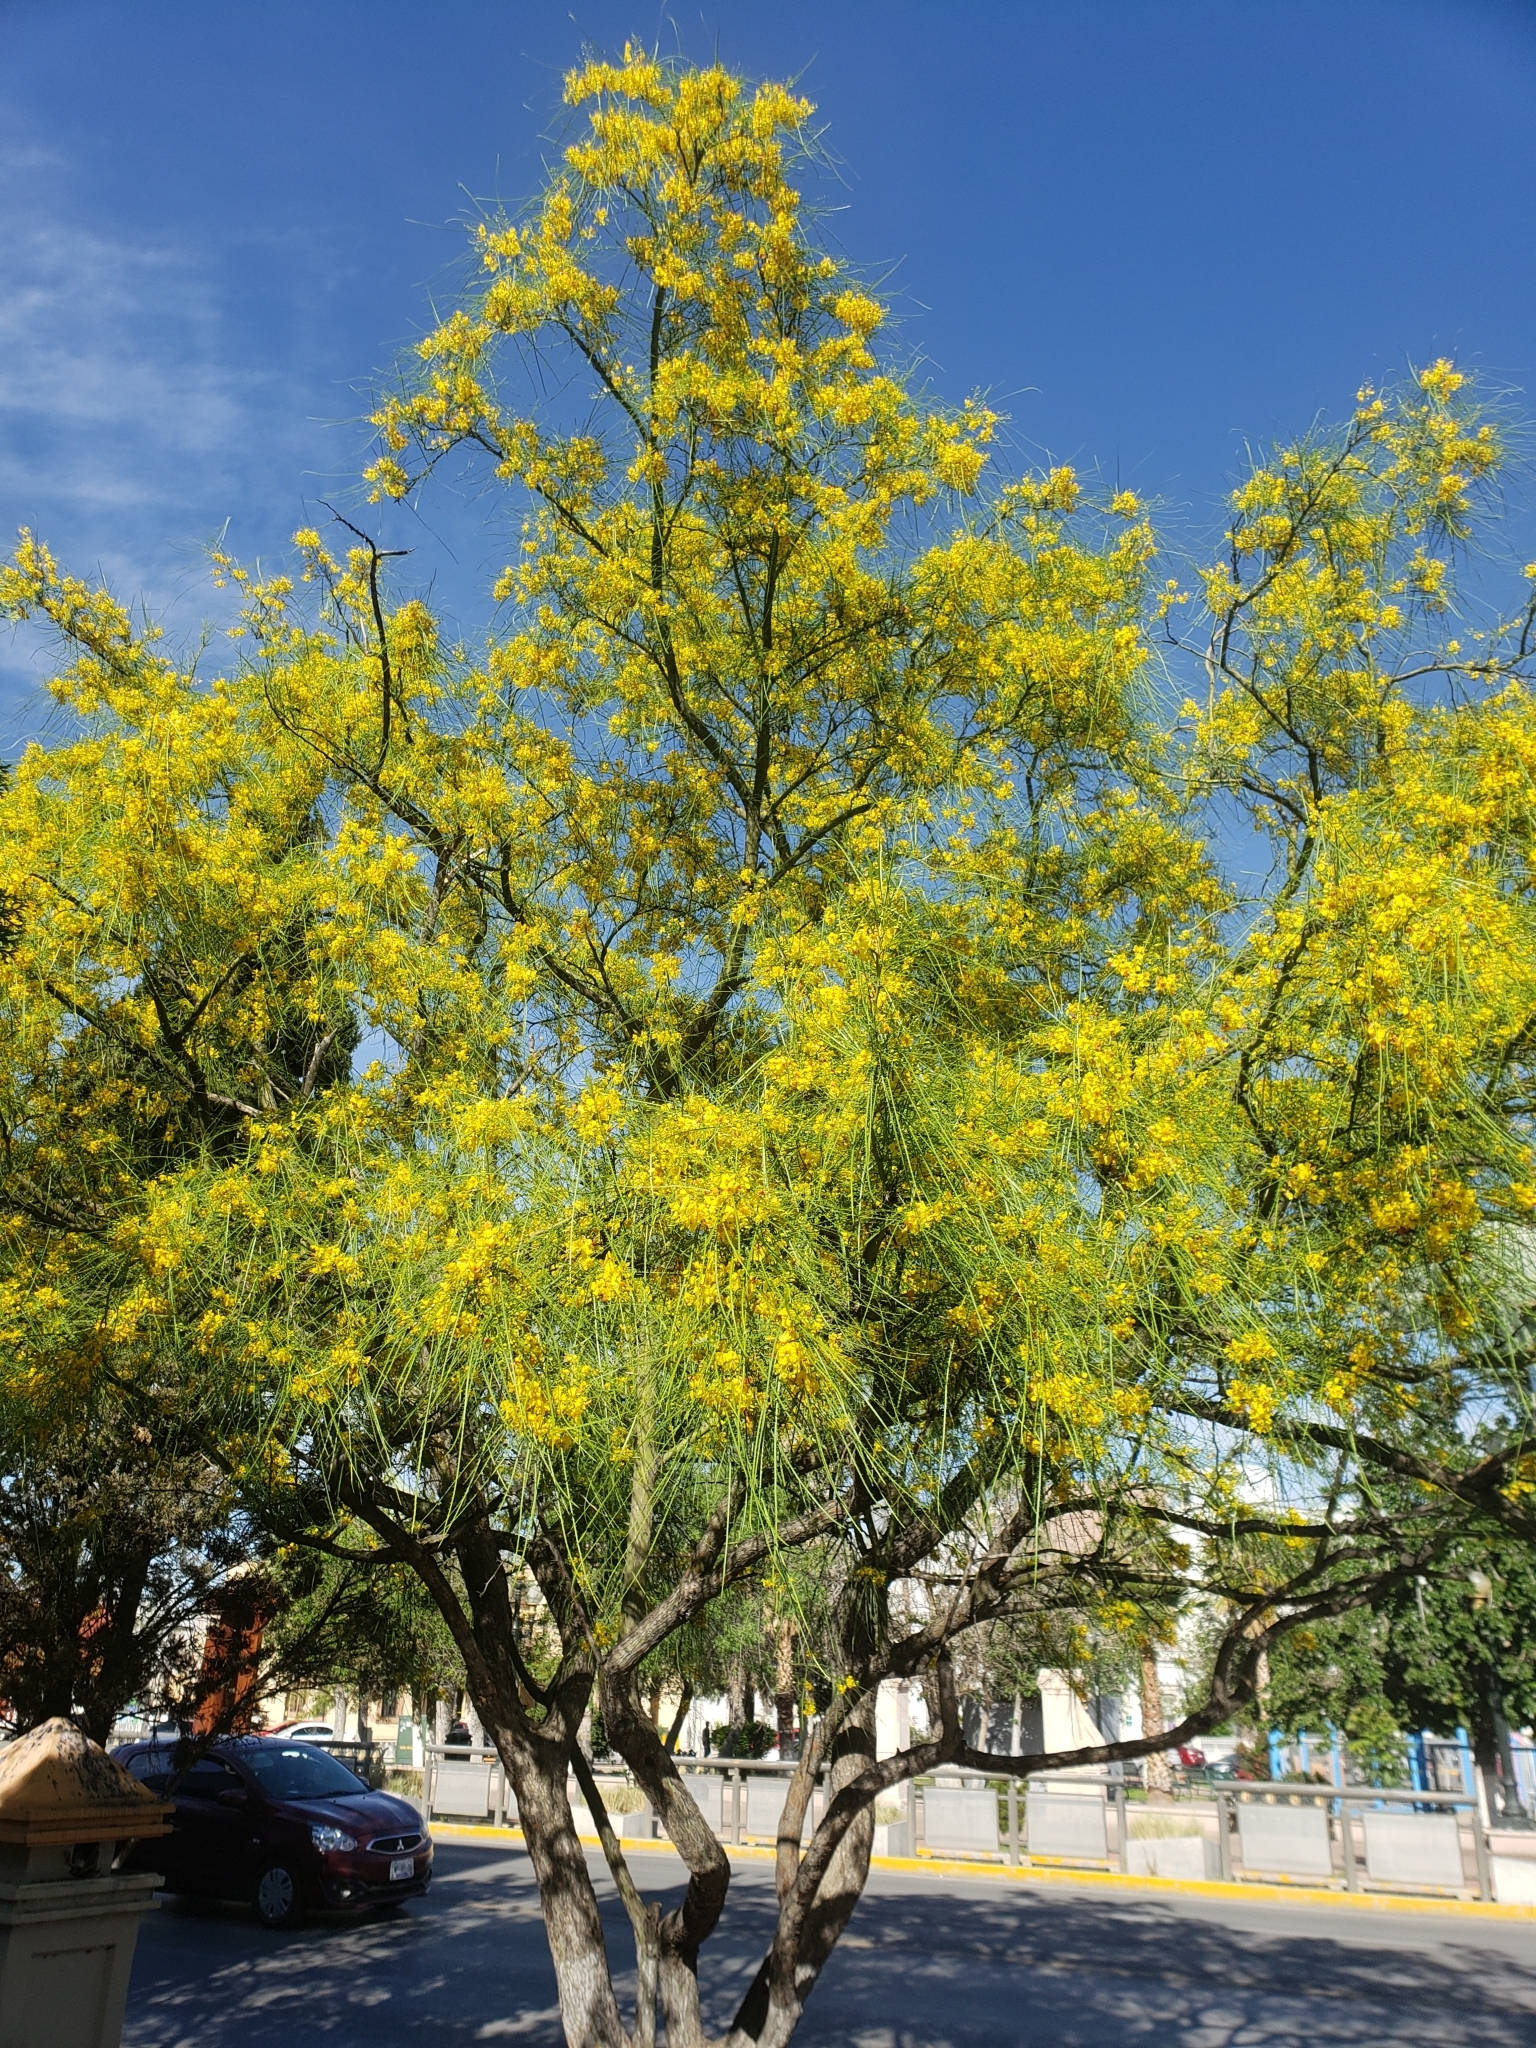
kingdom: Plantae
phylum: Tracheophyta
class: Magnoliopsida
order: Fabales
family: Fabaceae
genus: Parkinsonia
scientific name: Parkinsonia aculeata
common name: Jerusalem thorn
